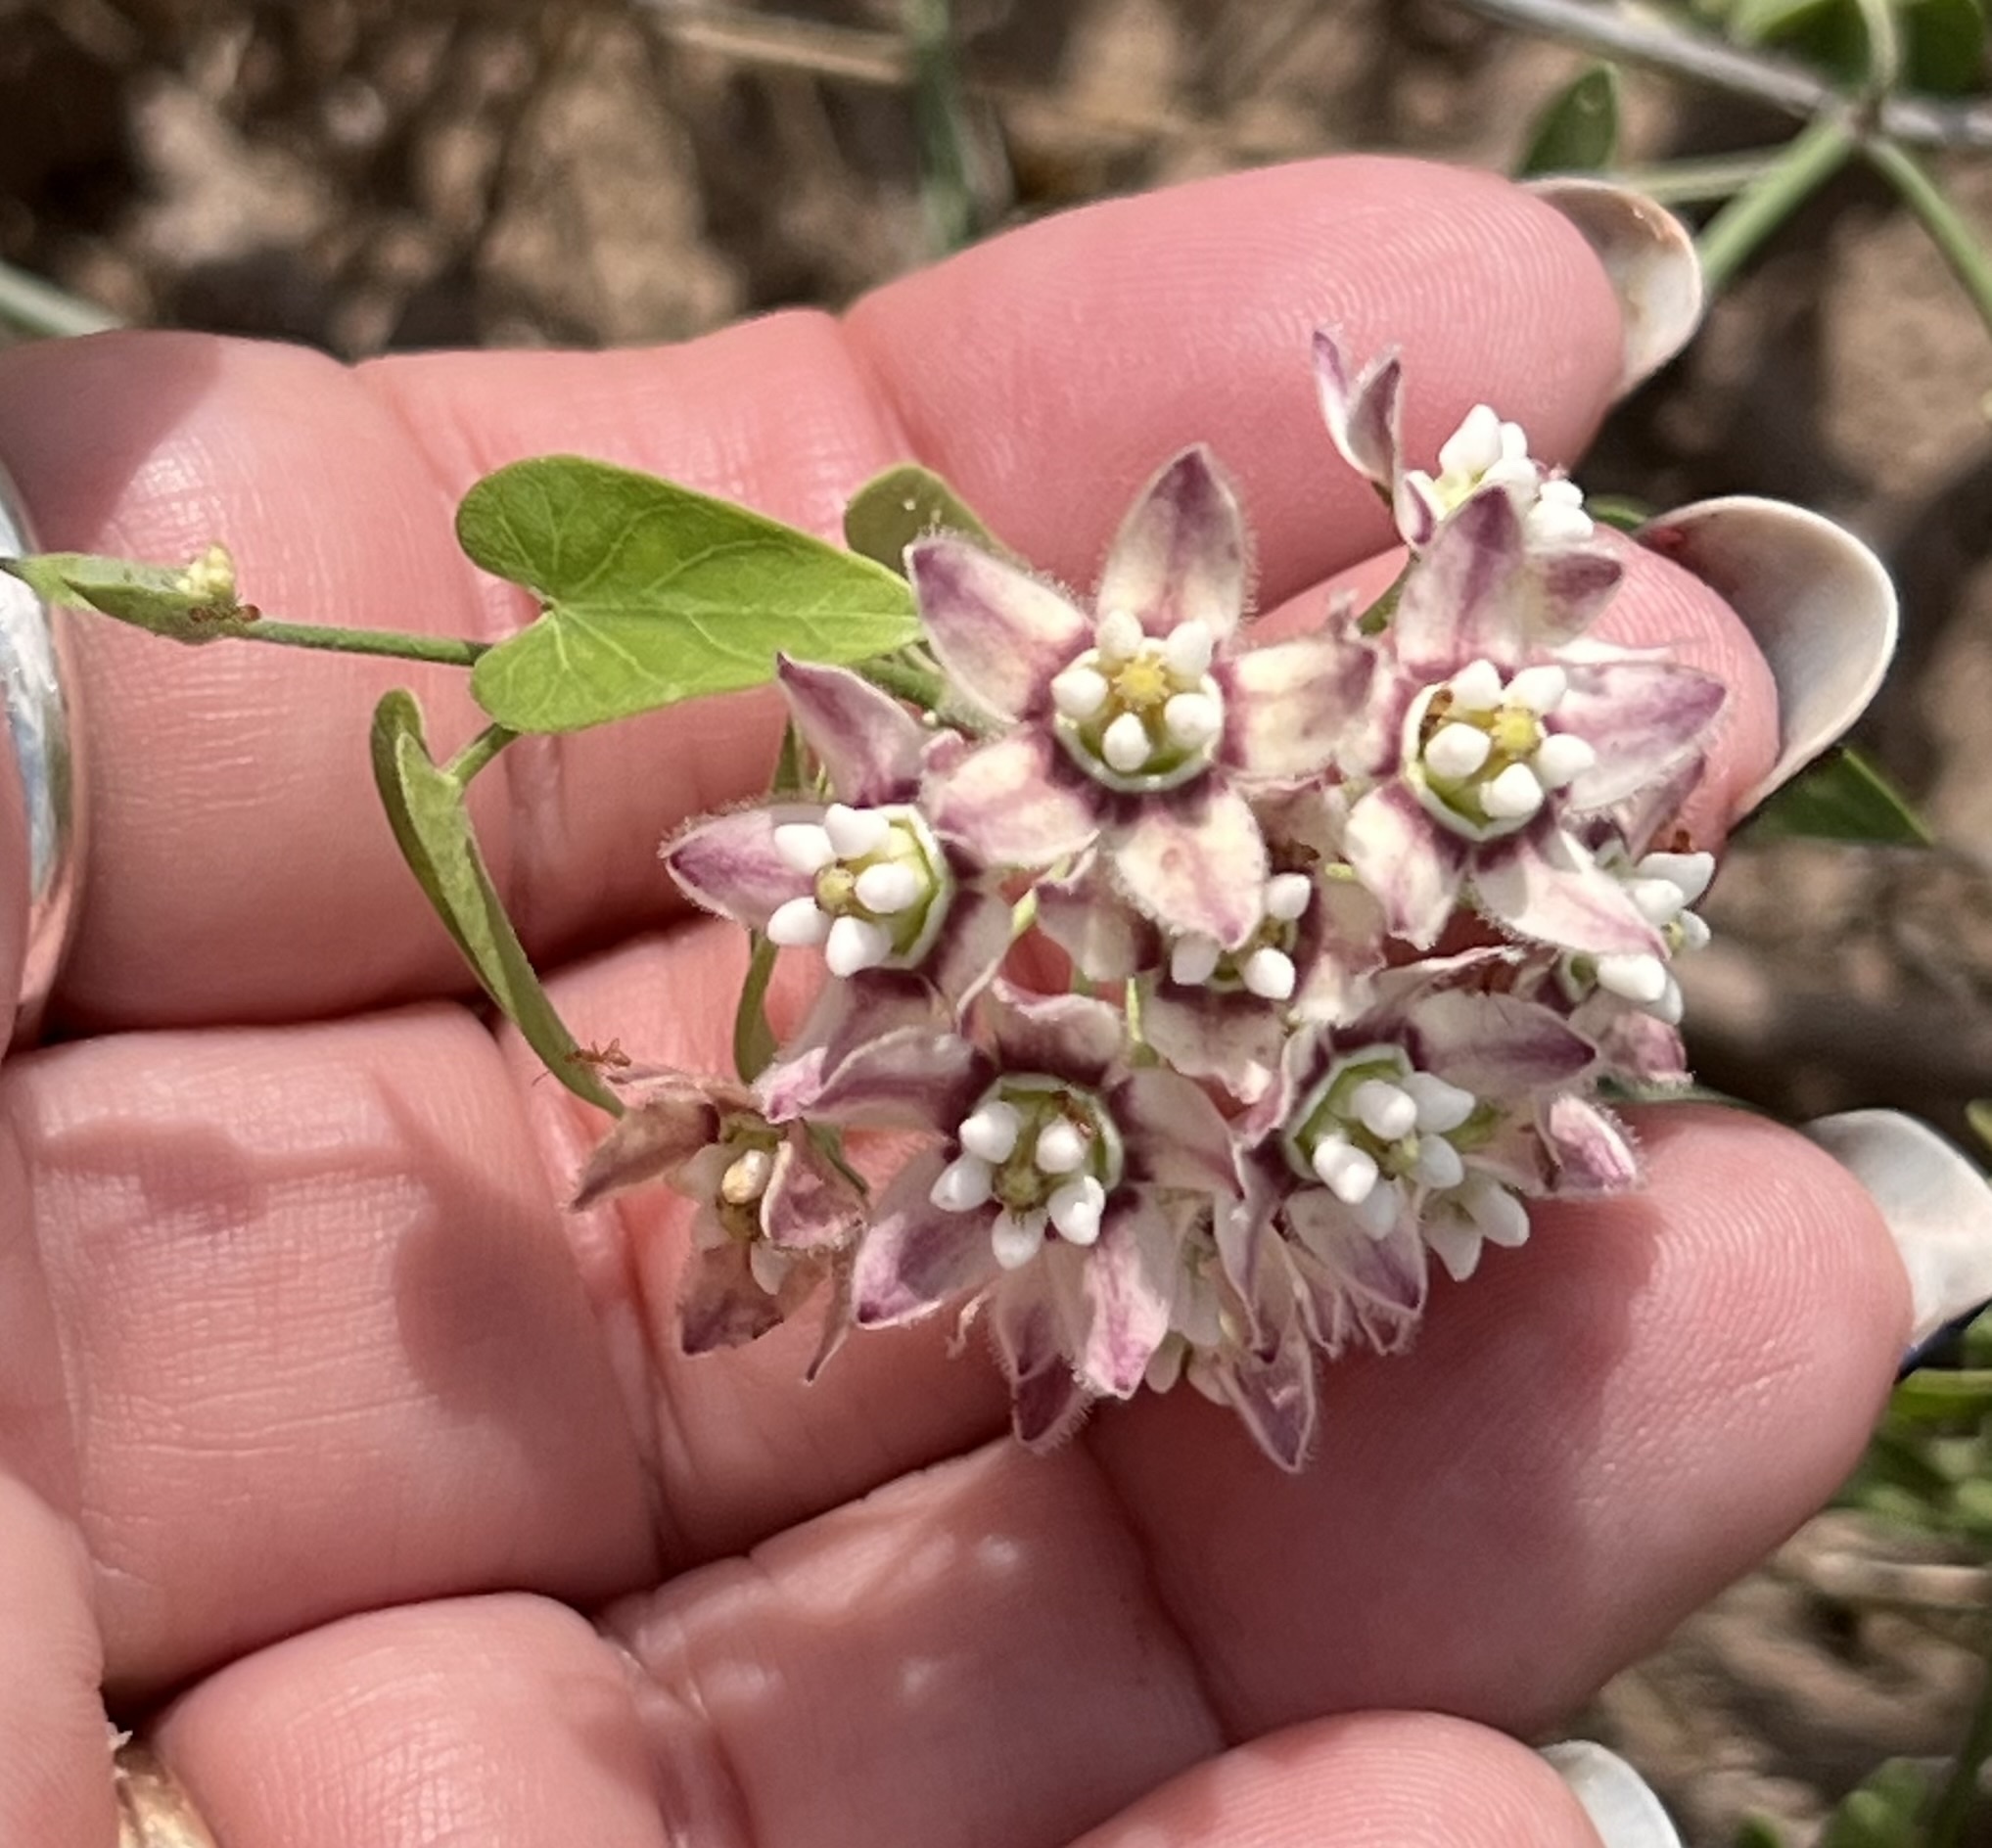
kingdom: Plantae
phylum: Tracheophyta
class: Magnoliopsida
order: Gentianales
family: Apocynaceae
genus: Funastrum
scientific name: Funastrum cynanchoides
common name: Climbing-milkweed
